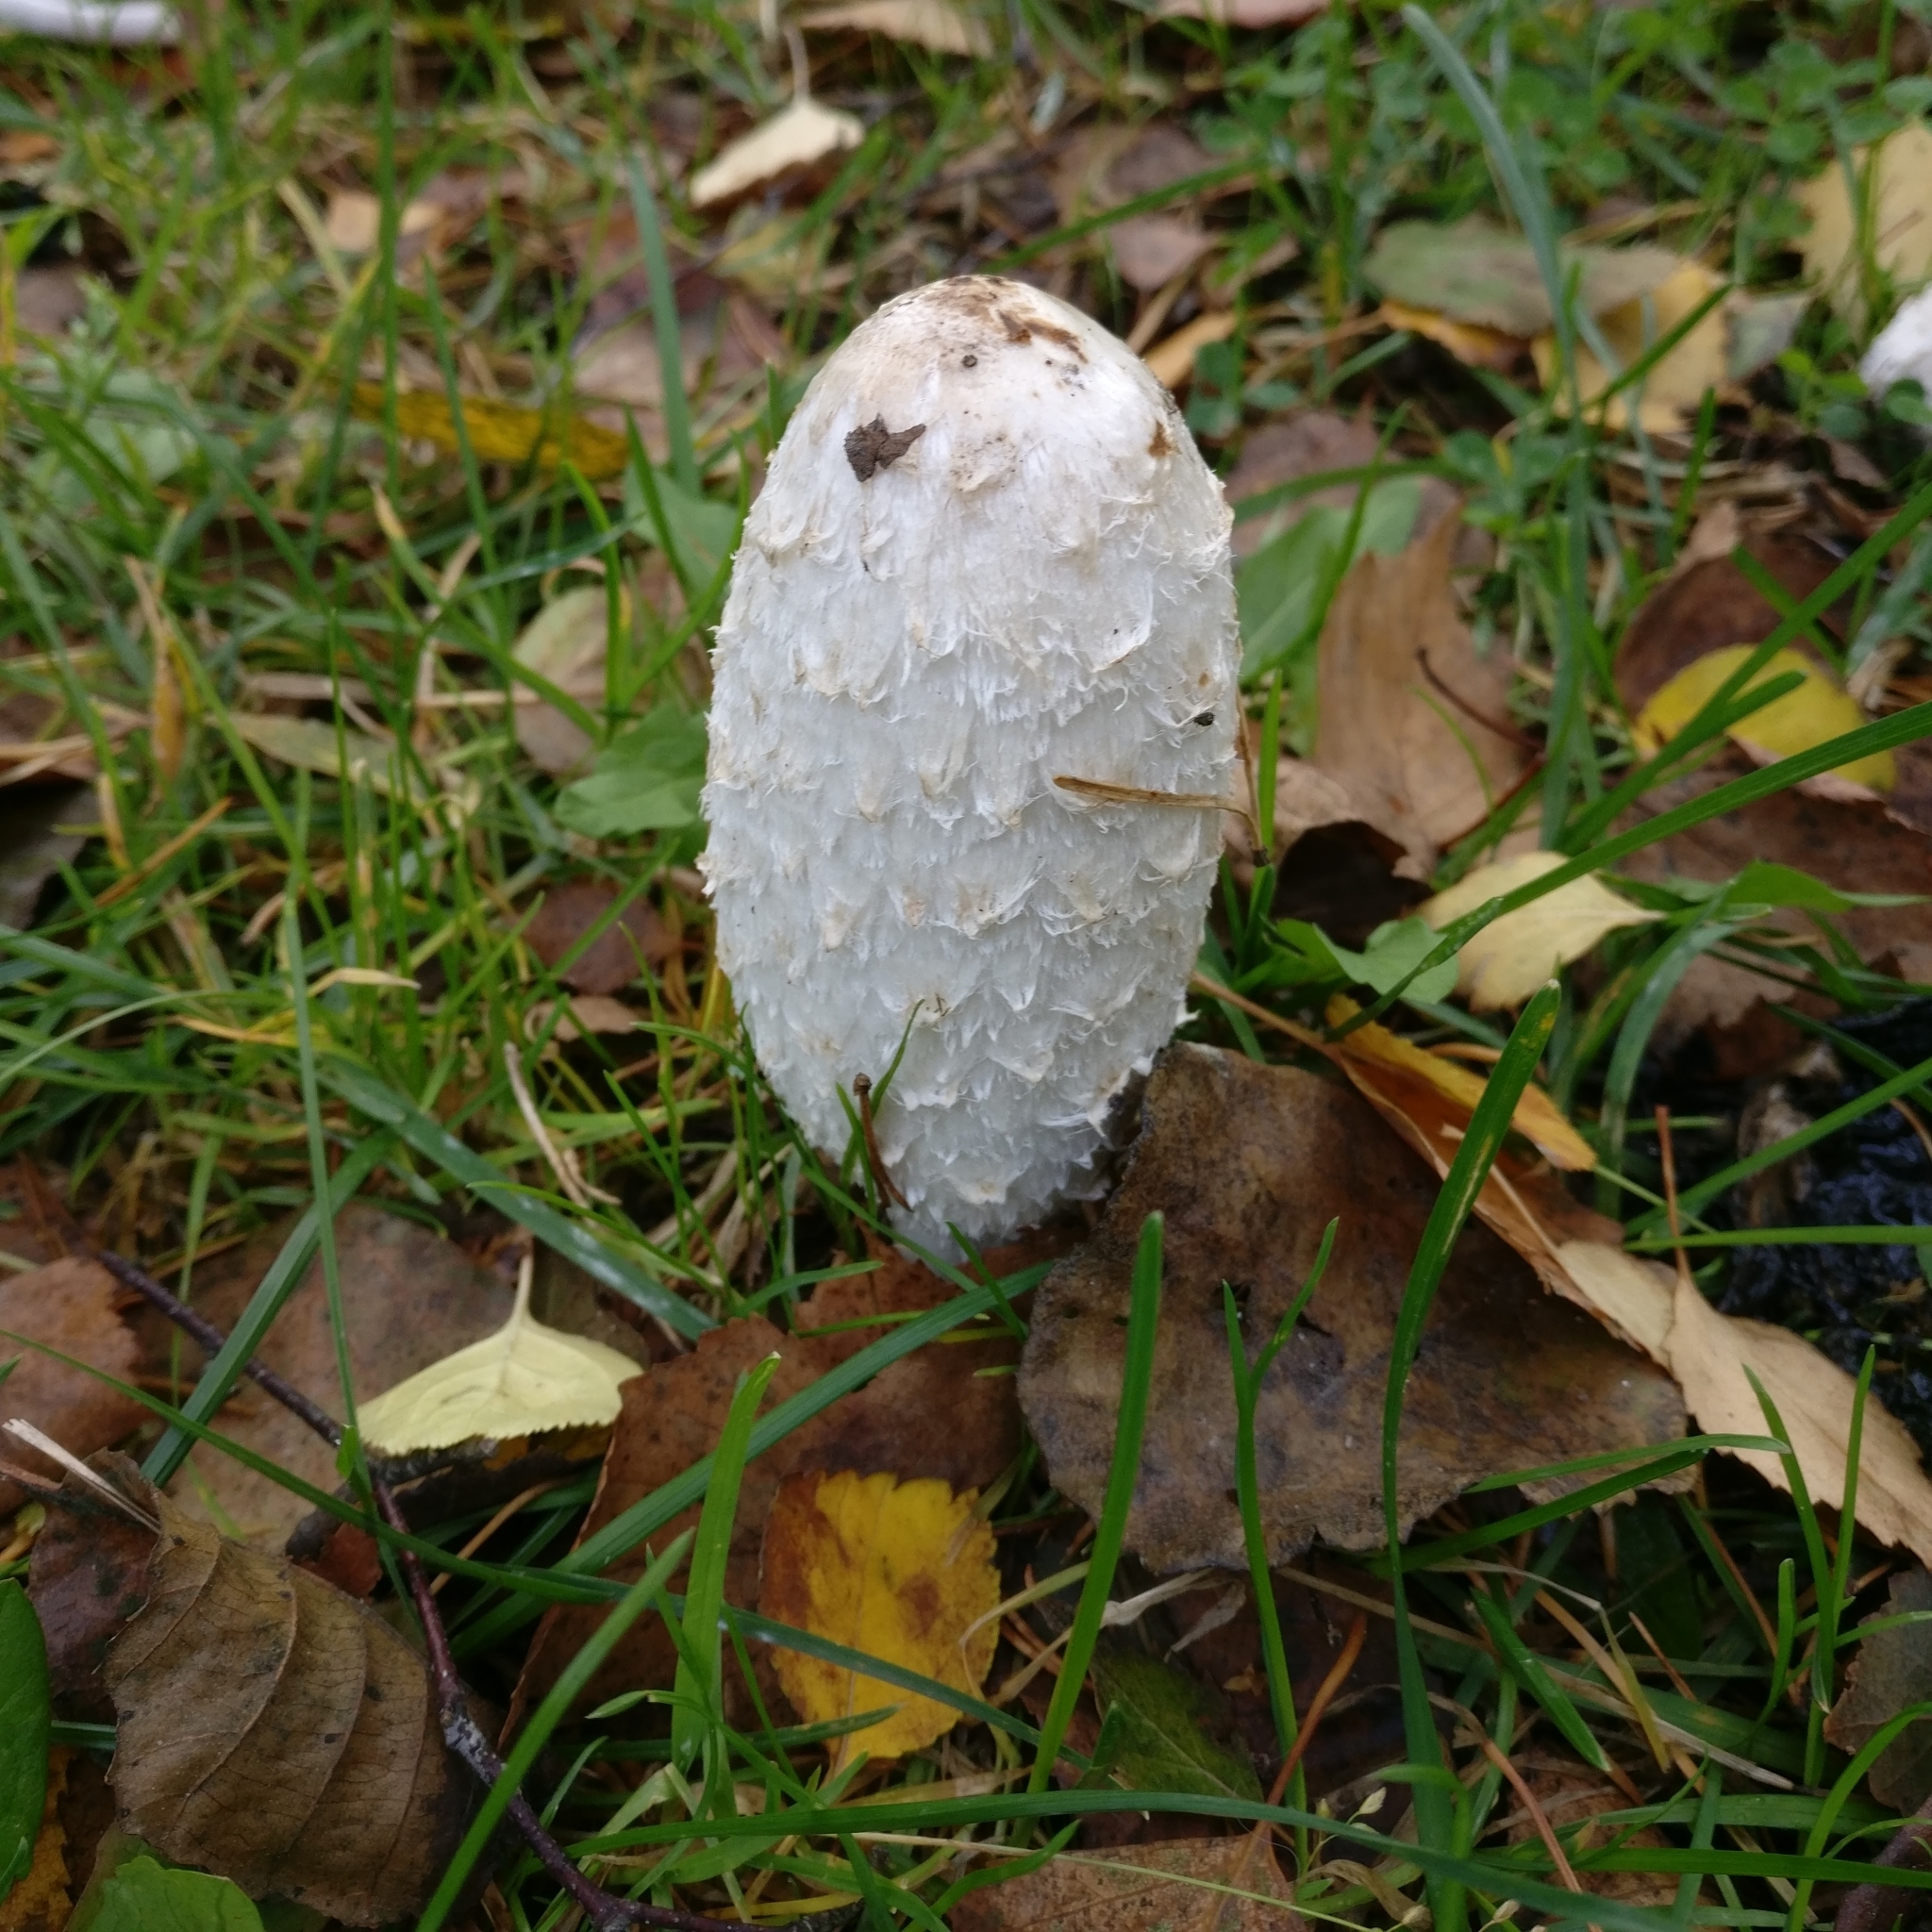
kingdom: Fungi
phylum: Basidiomycota
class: Agaricomycetes
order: Agaricales
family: Agaricaceae
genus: Coprinus
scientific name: Coprinus comatus
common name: Lawyer's wig
